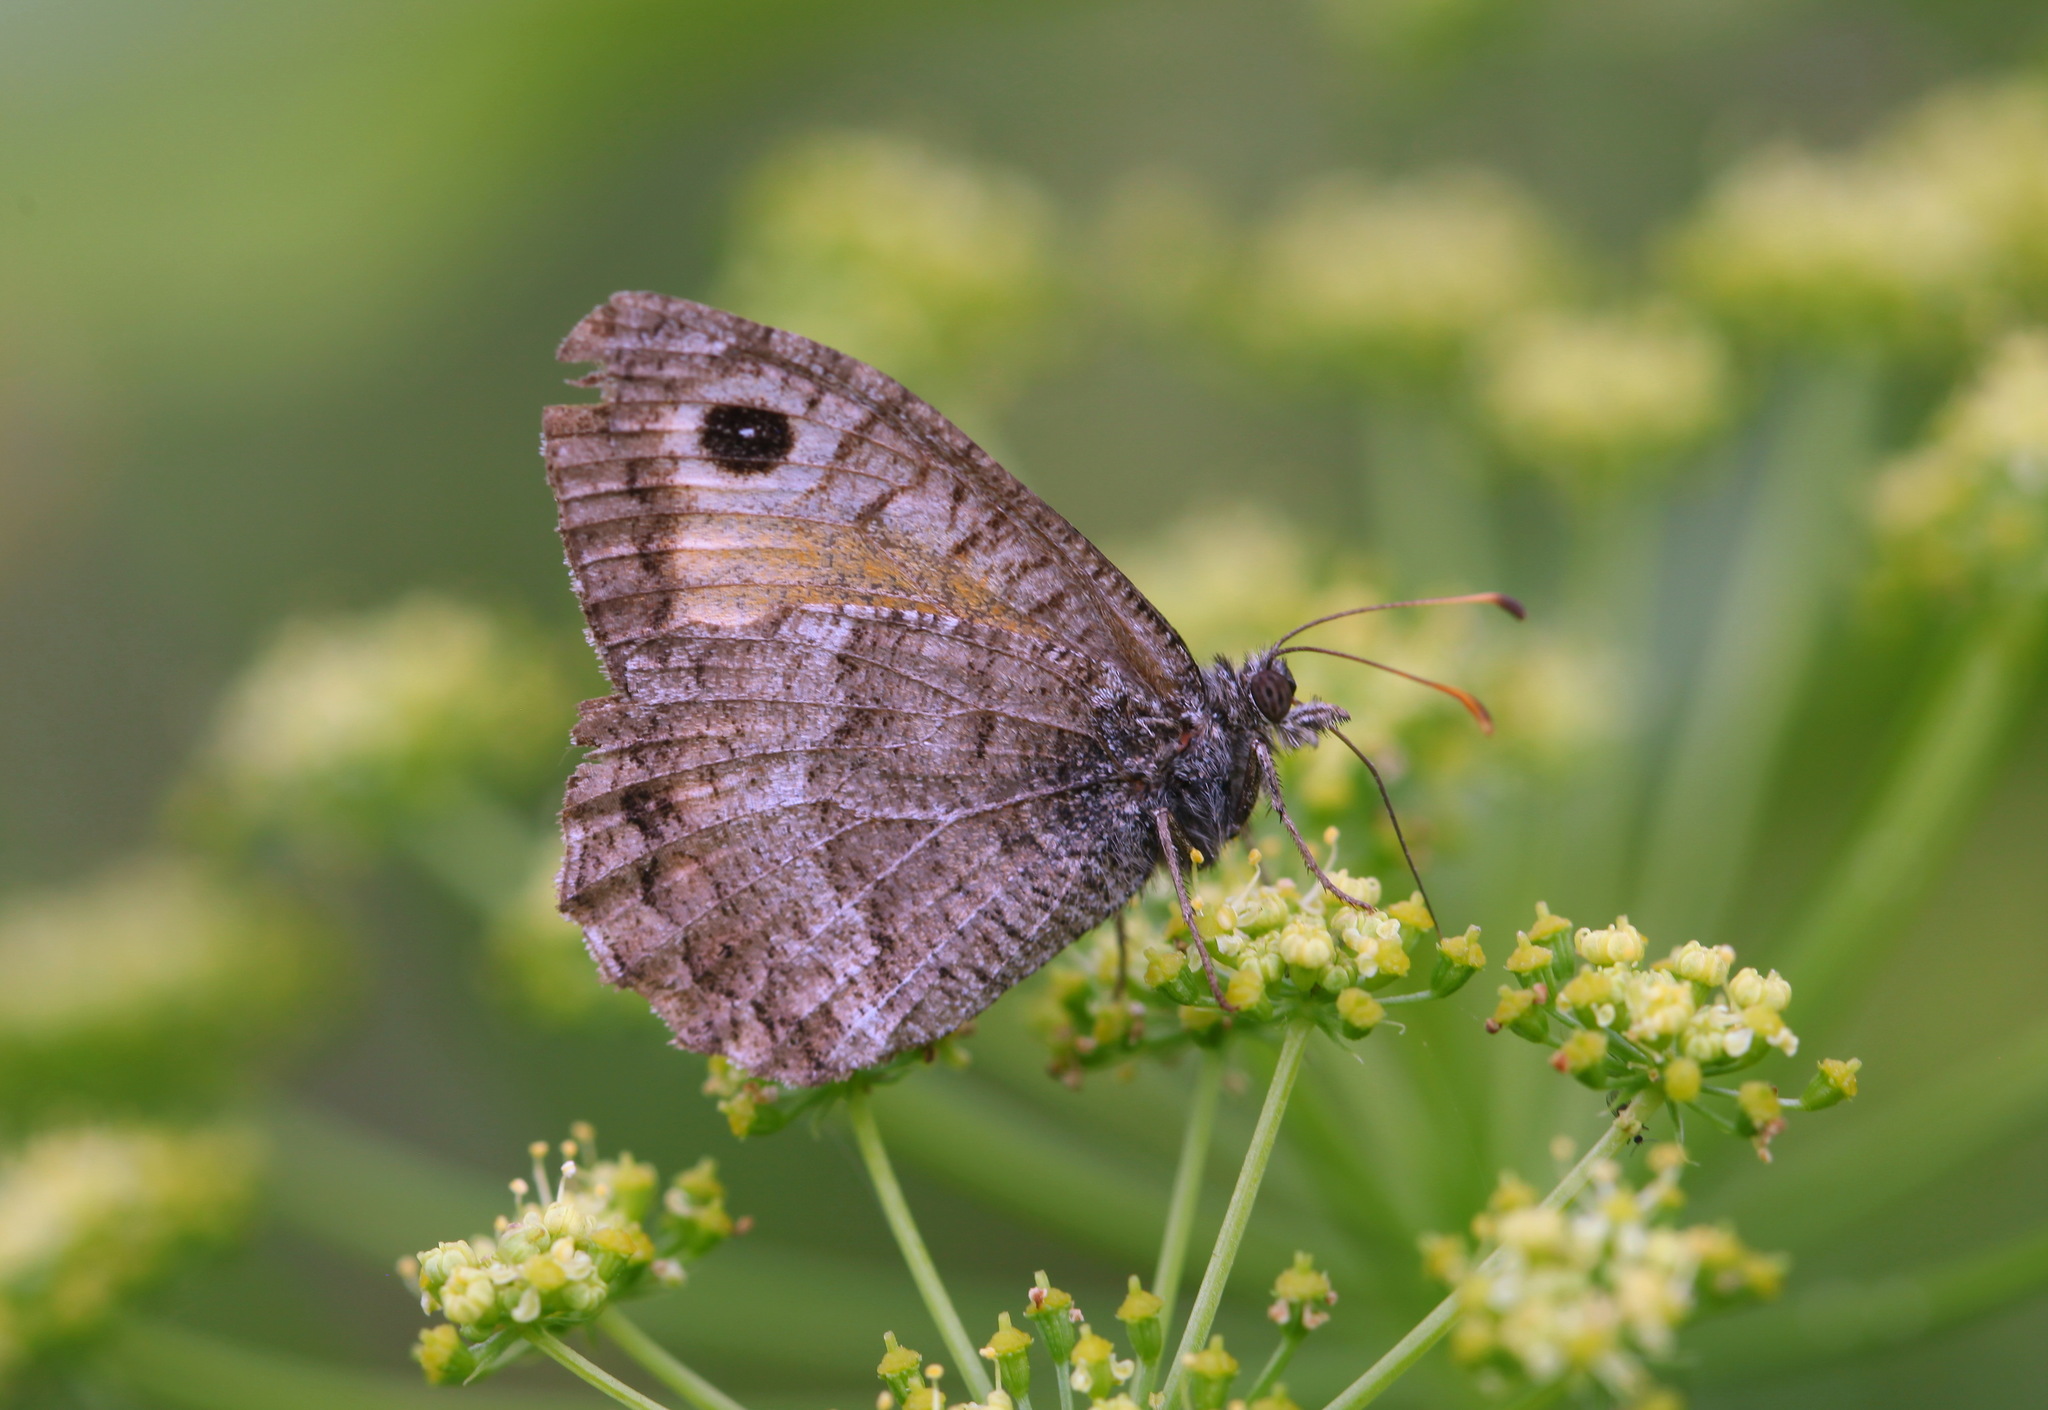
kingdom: Animalia
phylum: Arthropoda
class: Insecta
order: Lepidoptera
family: Nymphalidae
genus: Arethusana
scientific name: Arethusana arethusa
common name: False grayling
